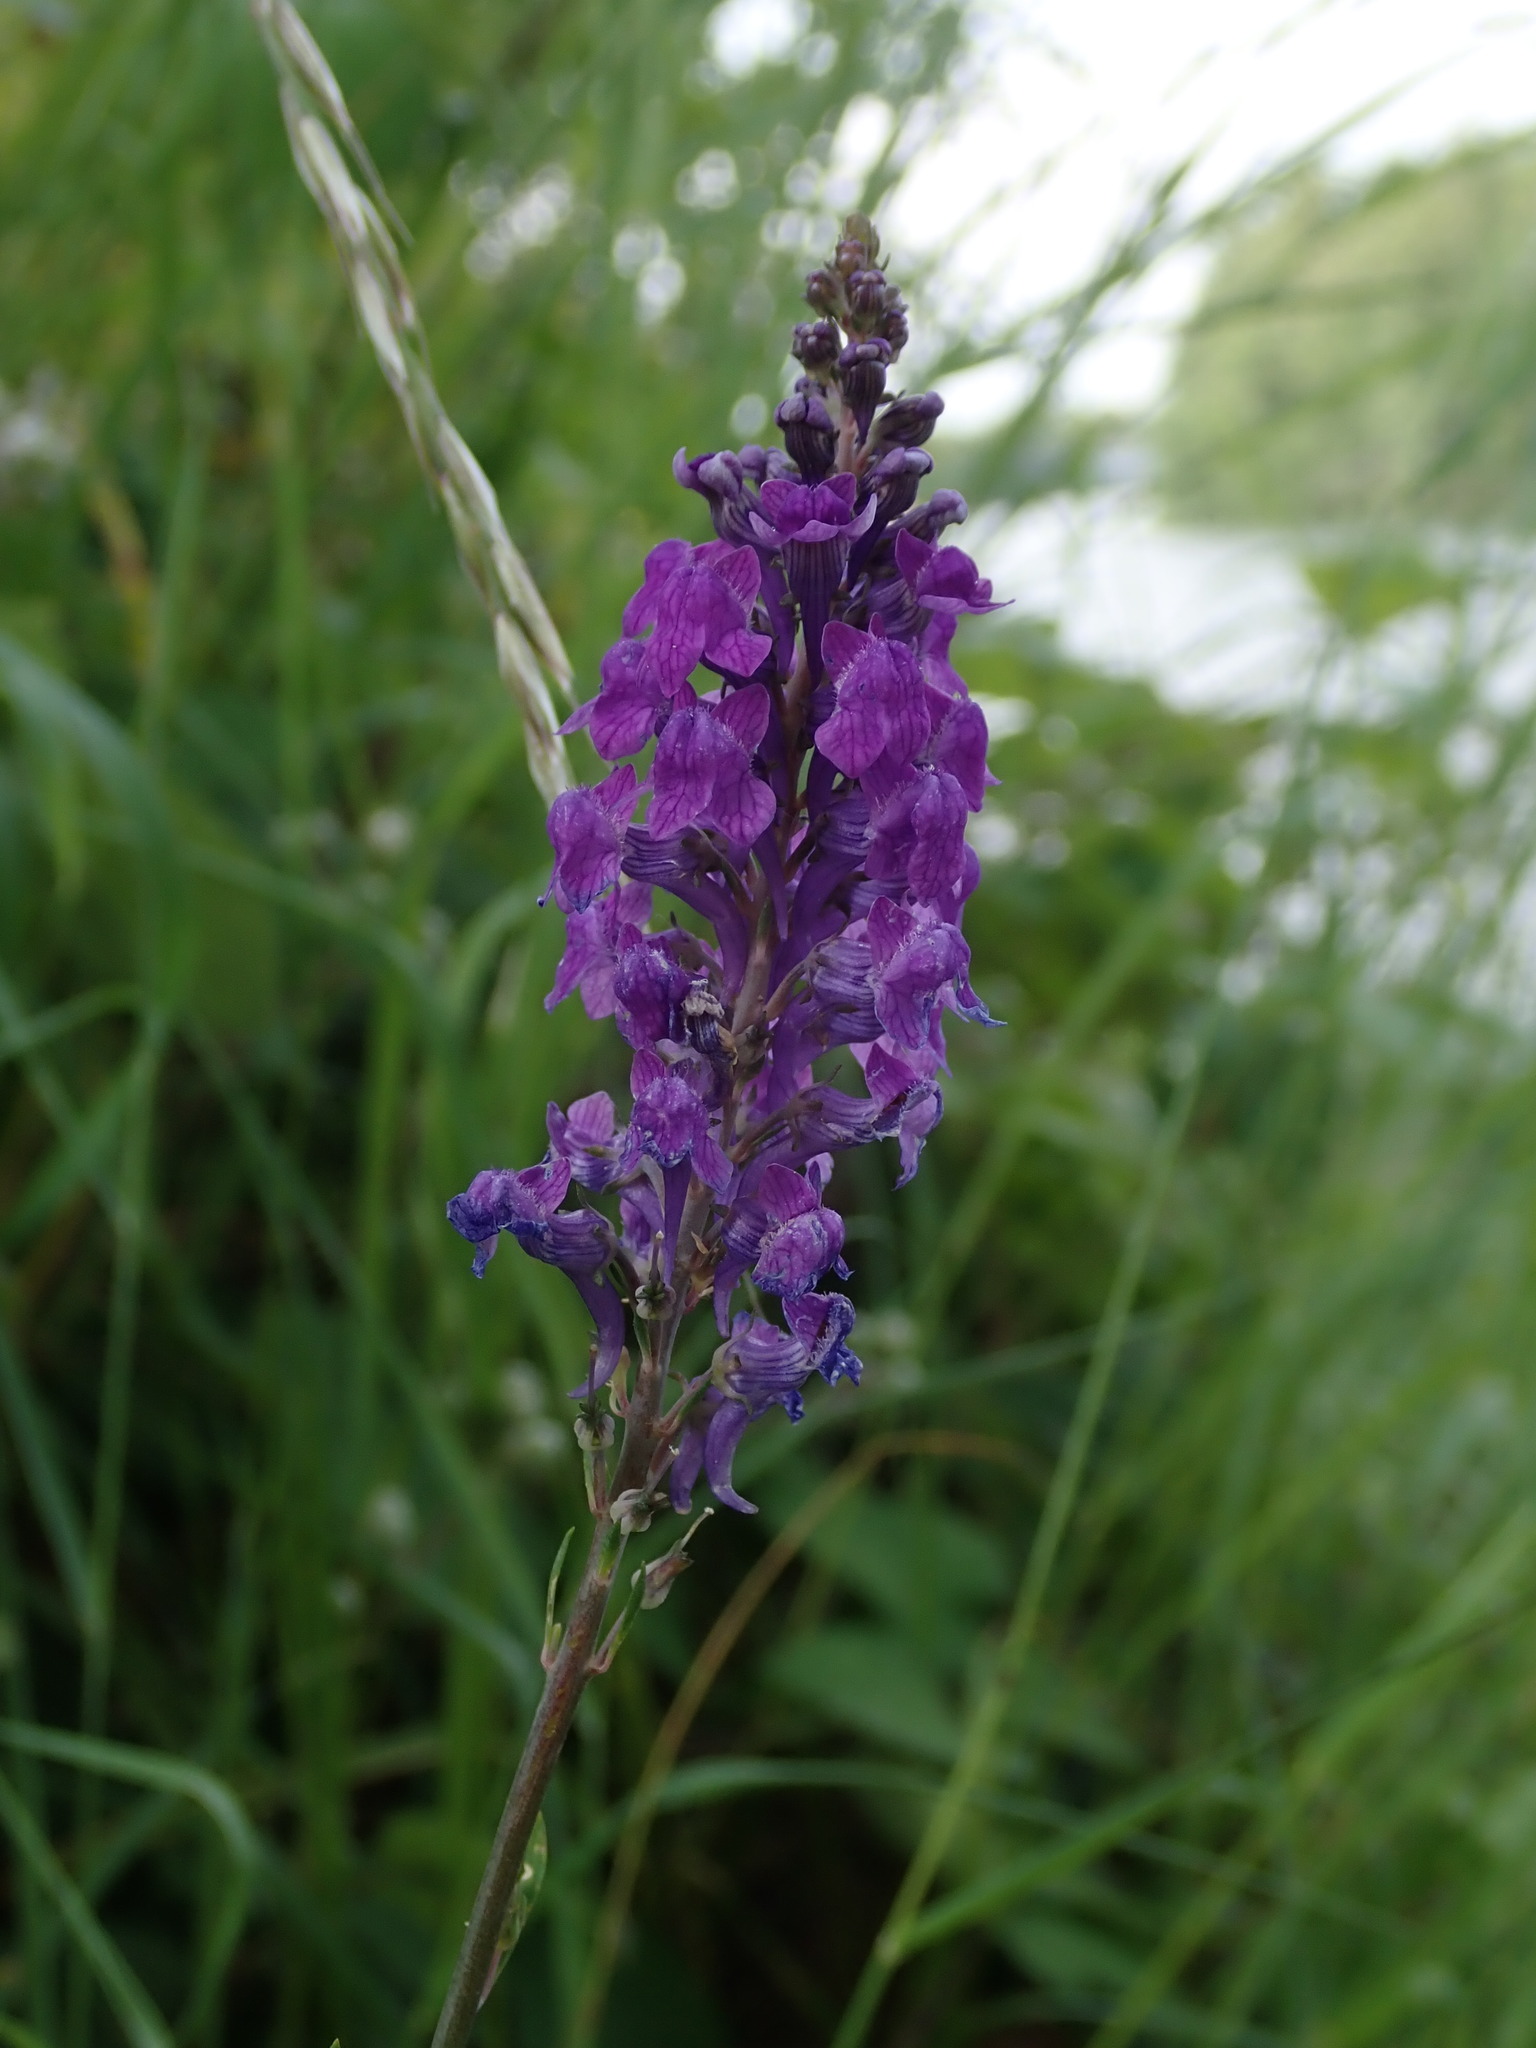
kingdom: Plantae
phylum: Tracheophyta
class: Magnoliopsida
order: Lamiales
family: Plantaginaceae
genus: Linaria
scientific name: Linaria purpurea
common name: Purple toadflax
